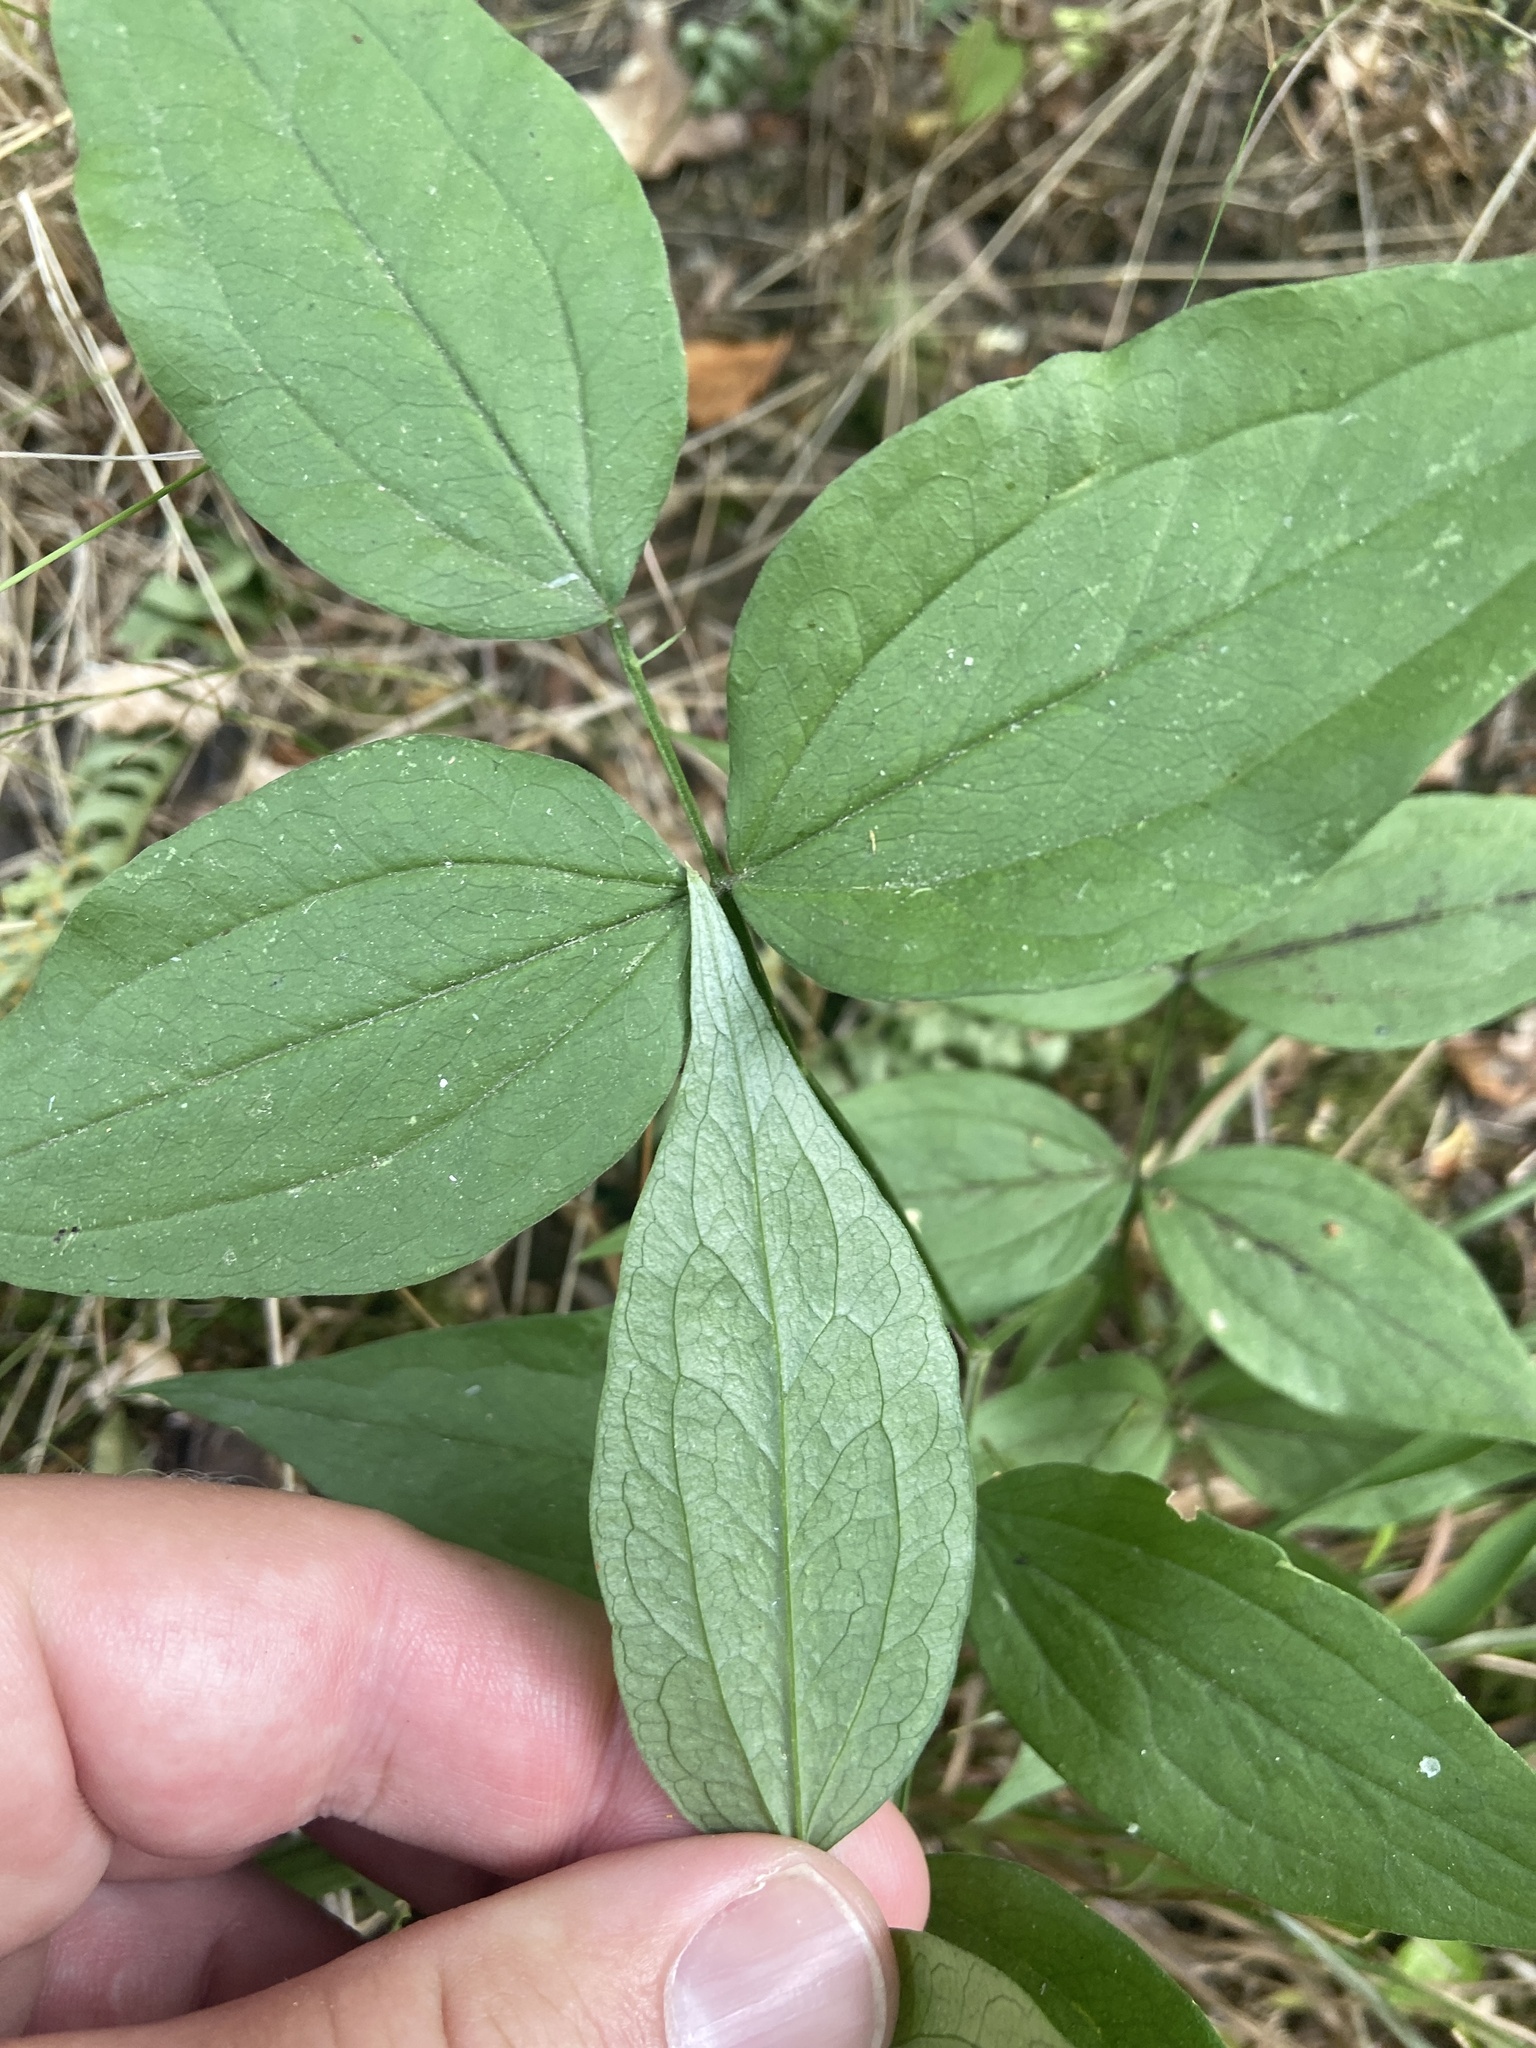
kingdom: Plantae
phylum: Tracheophyta
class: Magnoliopsida
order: Fabales
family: Fabaceae
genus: Lathyrus
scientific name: Lathyrus vernus
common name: Spring pea
